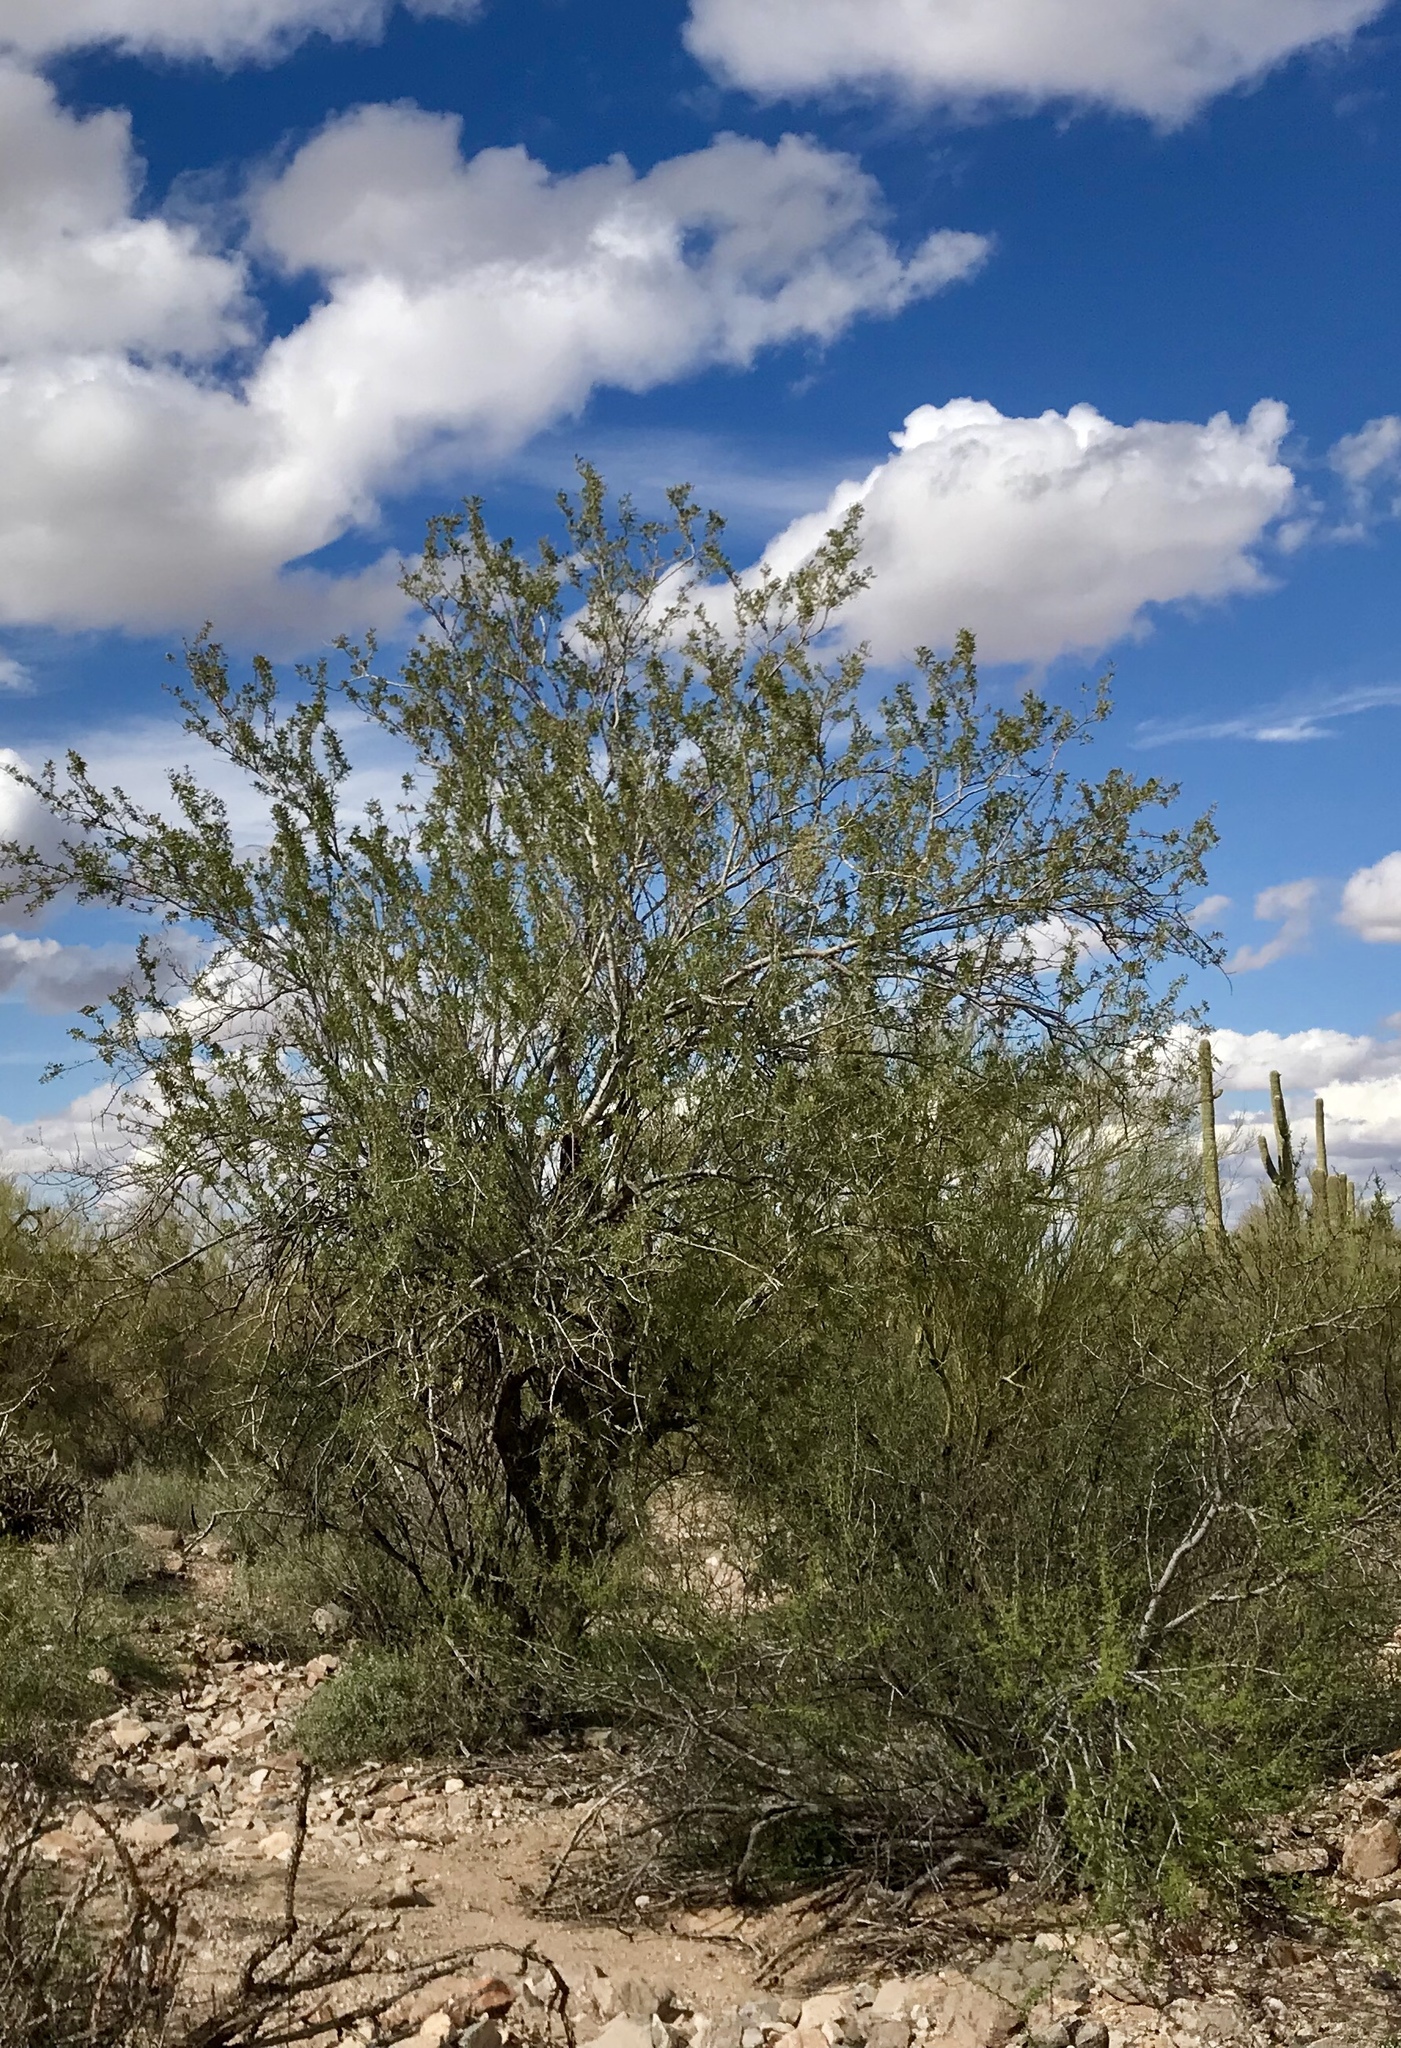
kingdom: Plantae
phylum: Tracheophyta
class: Magnoliopsida
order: Fabales
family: Fabaceae
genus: Olneya
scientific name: Olneya tesota
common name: Desert ironwood
